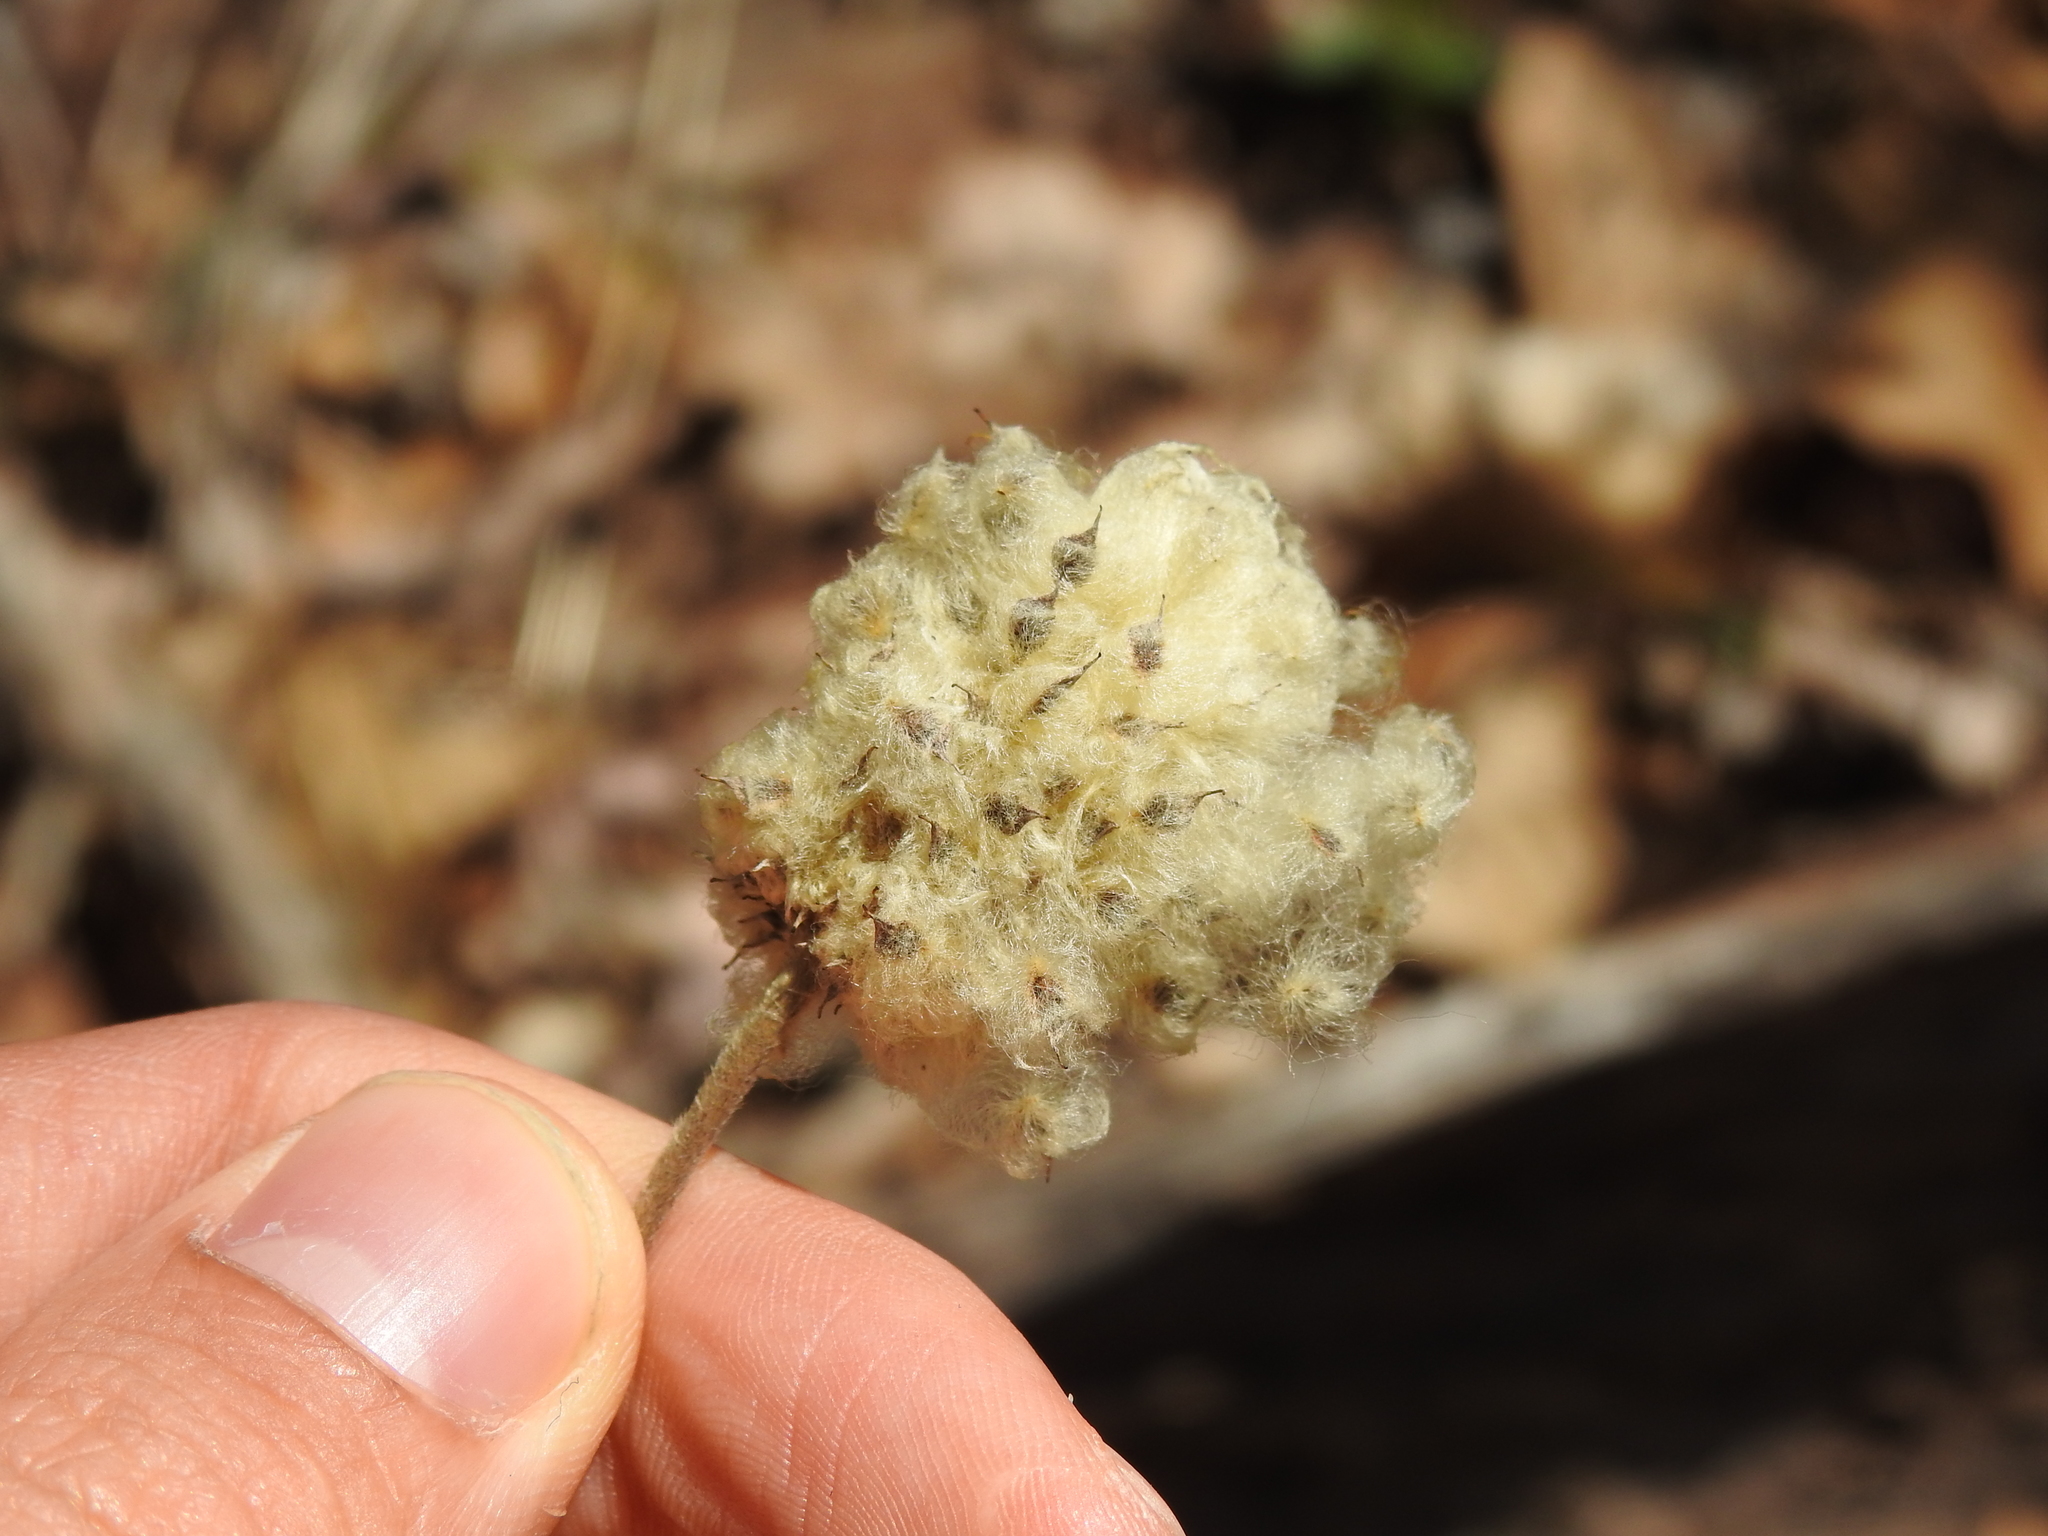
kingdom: Plantae
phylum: Tracheophyta
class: Magnoliopsida
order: Ranunculales
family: Ranunculaceae
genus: Anemone
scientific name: Anemone virginiana
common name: Tall anemone
